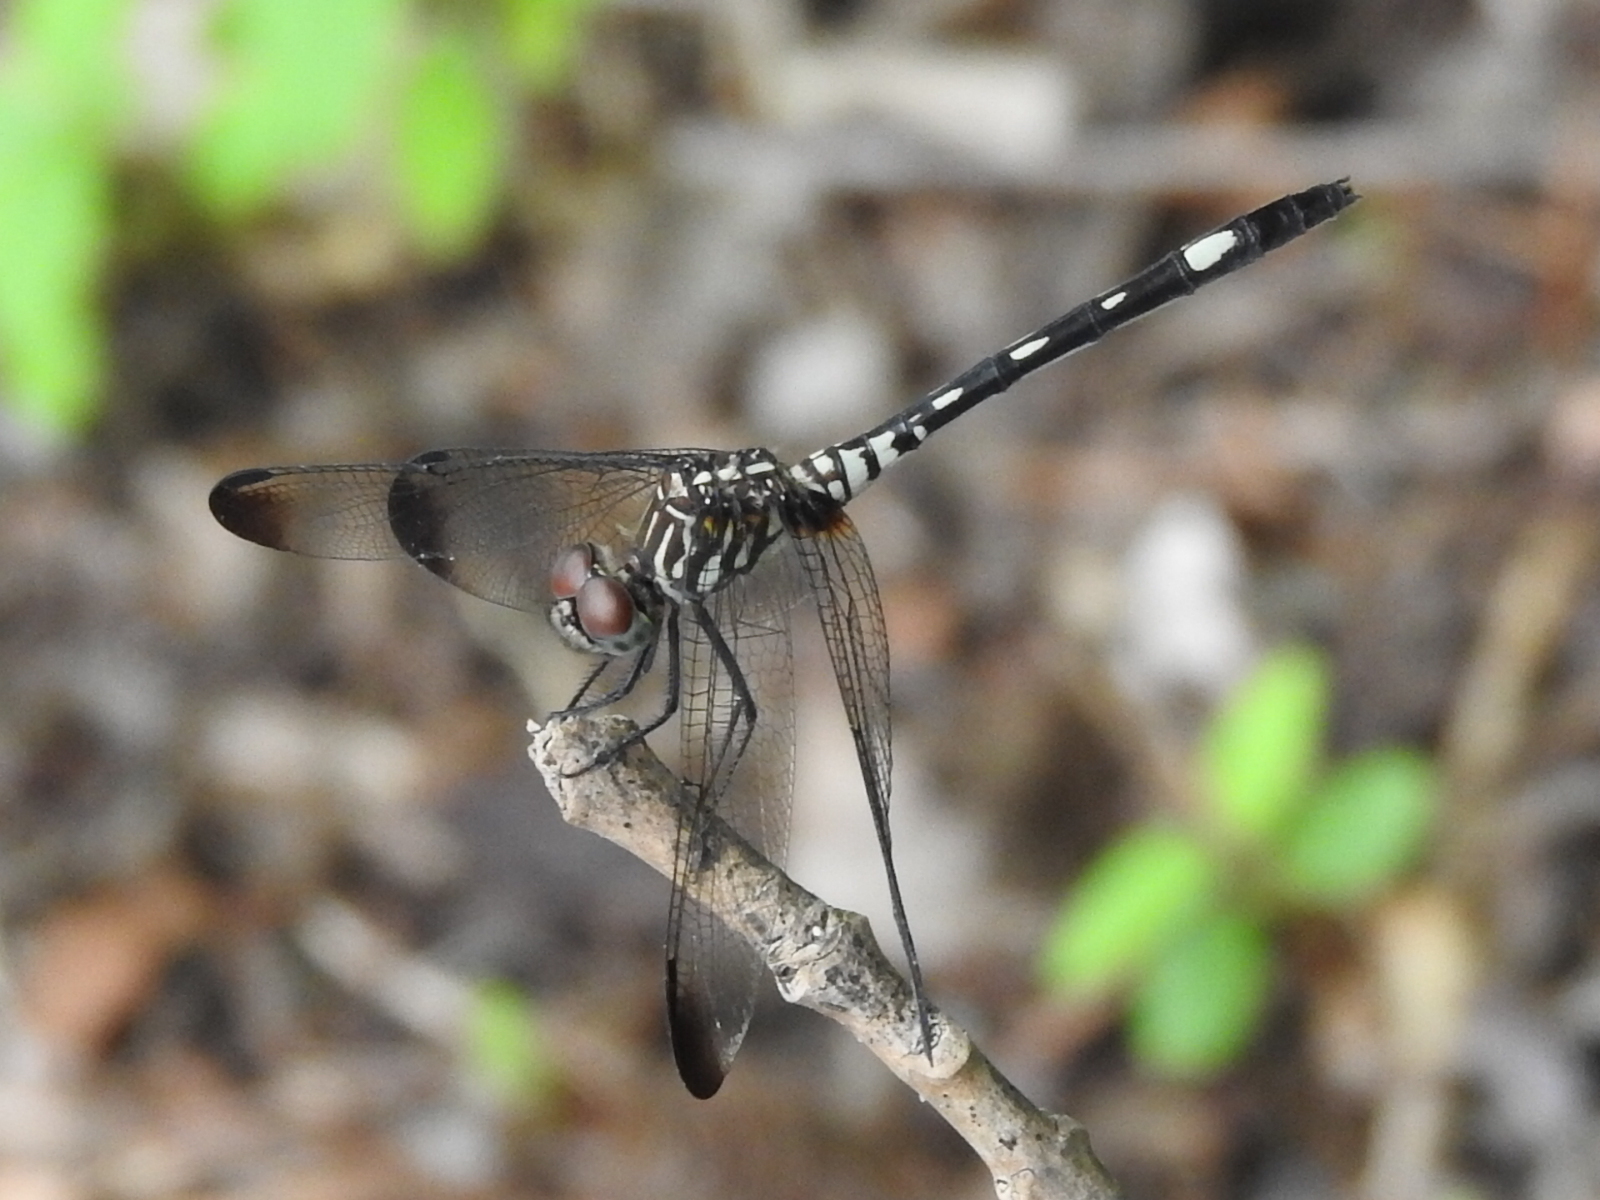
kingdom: Animalia
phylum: Arthropoda
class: Insecta
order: Odonata
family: Libellulidae
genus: Dythemis
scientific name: Dythemis velox
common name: Swift setwing
